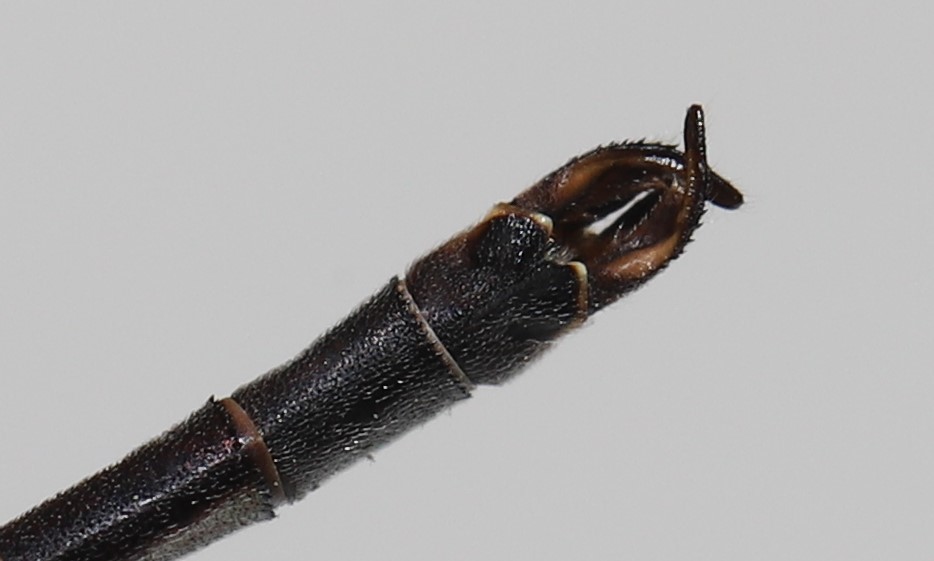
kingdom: Animalia
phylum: Arthropoda
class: Insecta
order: Odonata
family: Lestidae
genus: Lestes
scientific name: Lestes disjunctus
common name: Northern spreadwing
